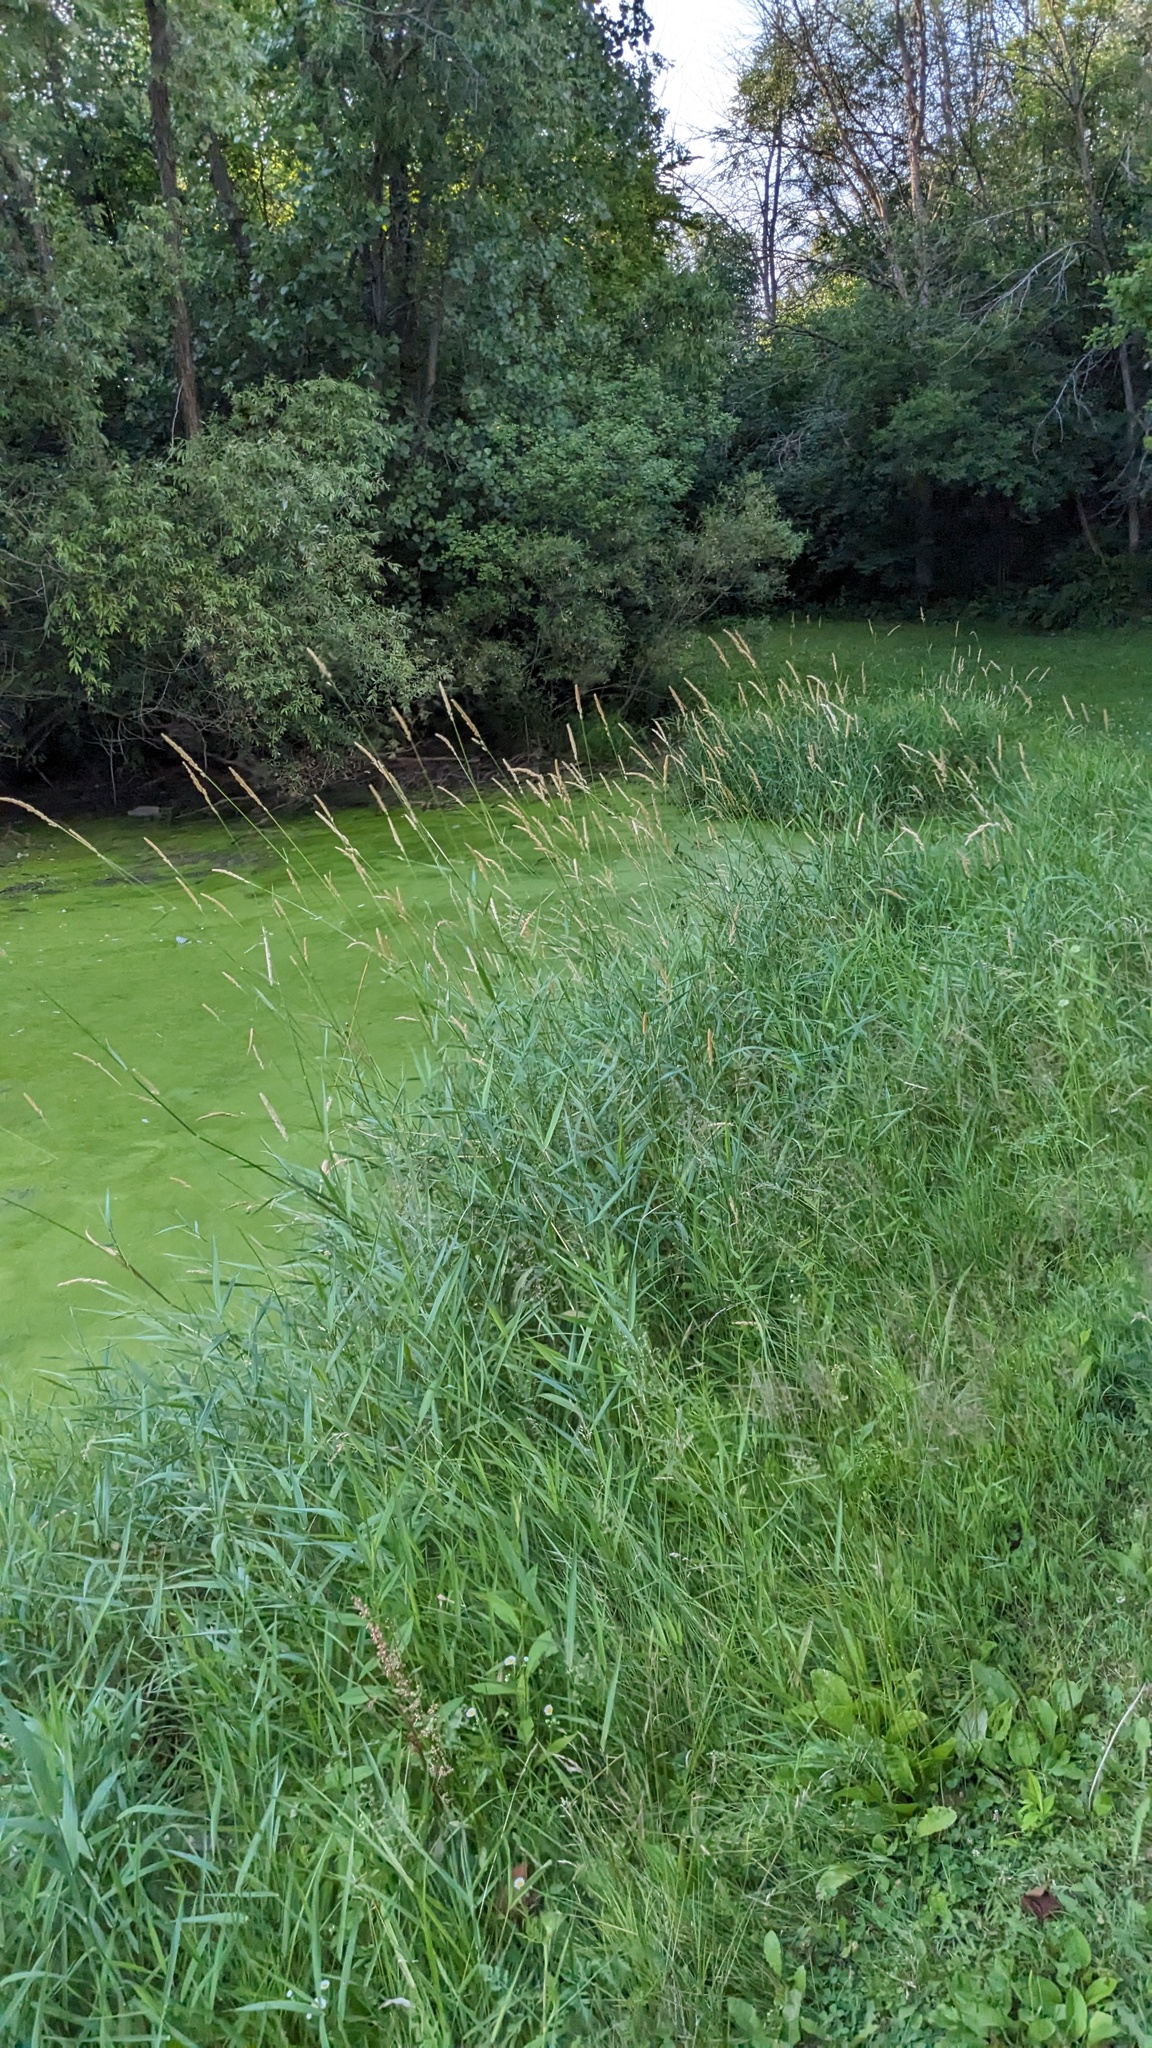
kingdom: Plantae
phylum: Tracheophyta
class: Liliopsida
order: Poales
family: Poaceae
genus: Phalaris
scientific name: Phalaris arundinacea
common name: Reed canary-grass
